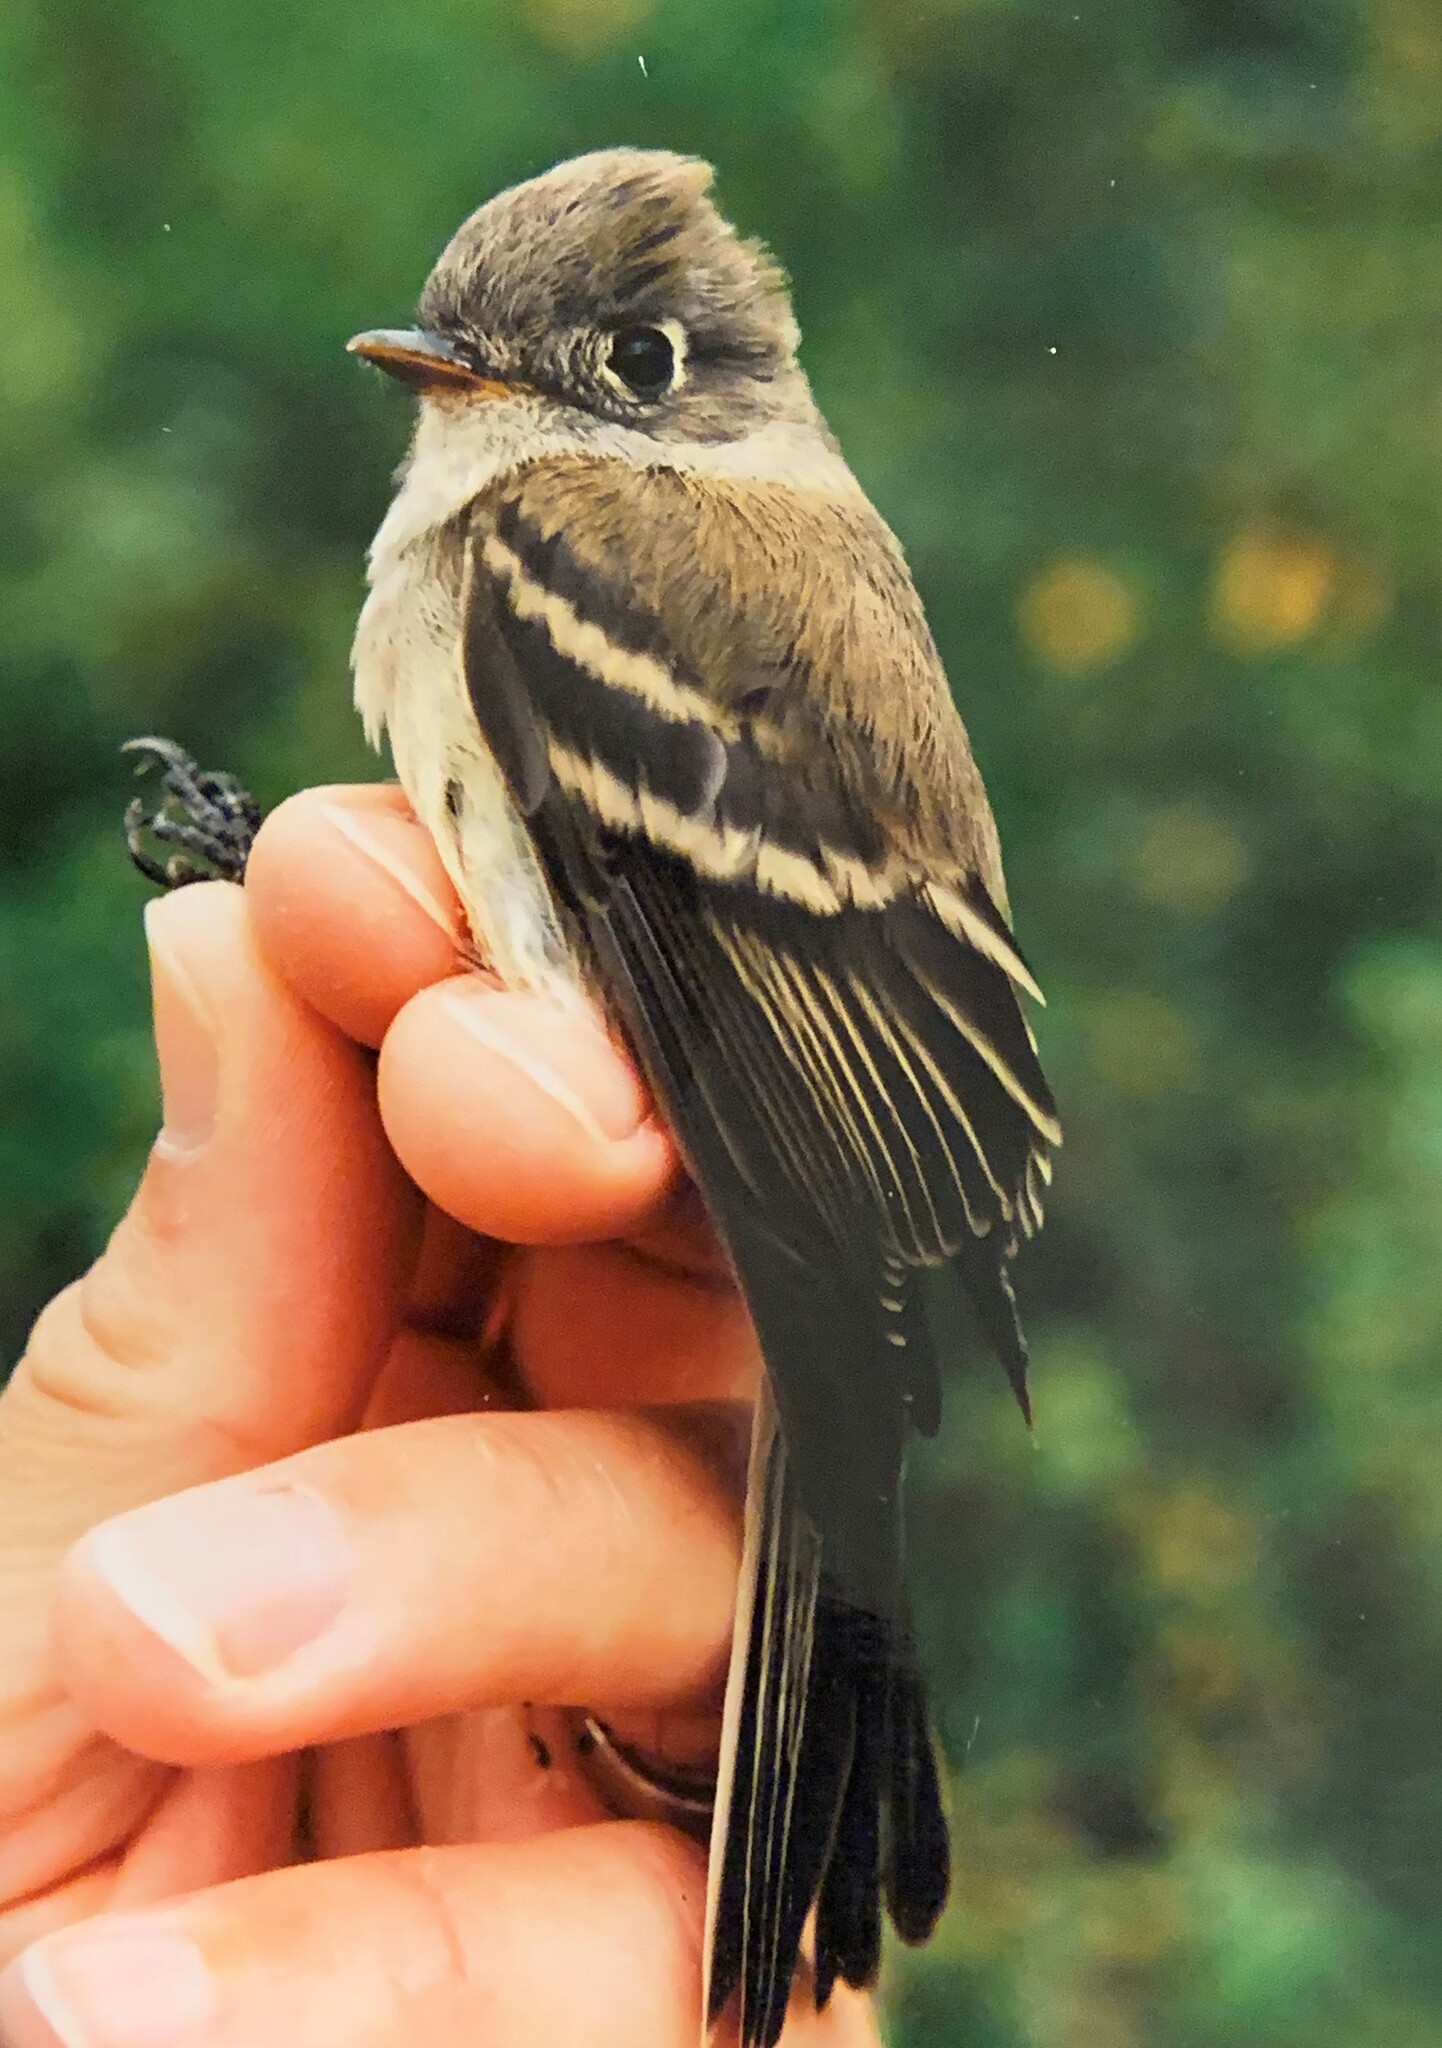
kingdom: Animalia
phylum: Chordata
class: Aves
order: Passeriformes
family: Tyrannidae
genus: Empidonax
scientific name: Empidonax oberholseri
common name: Dusky flycatcher
